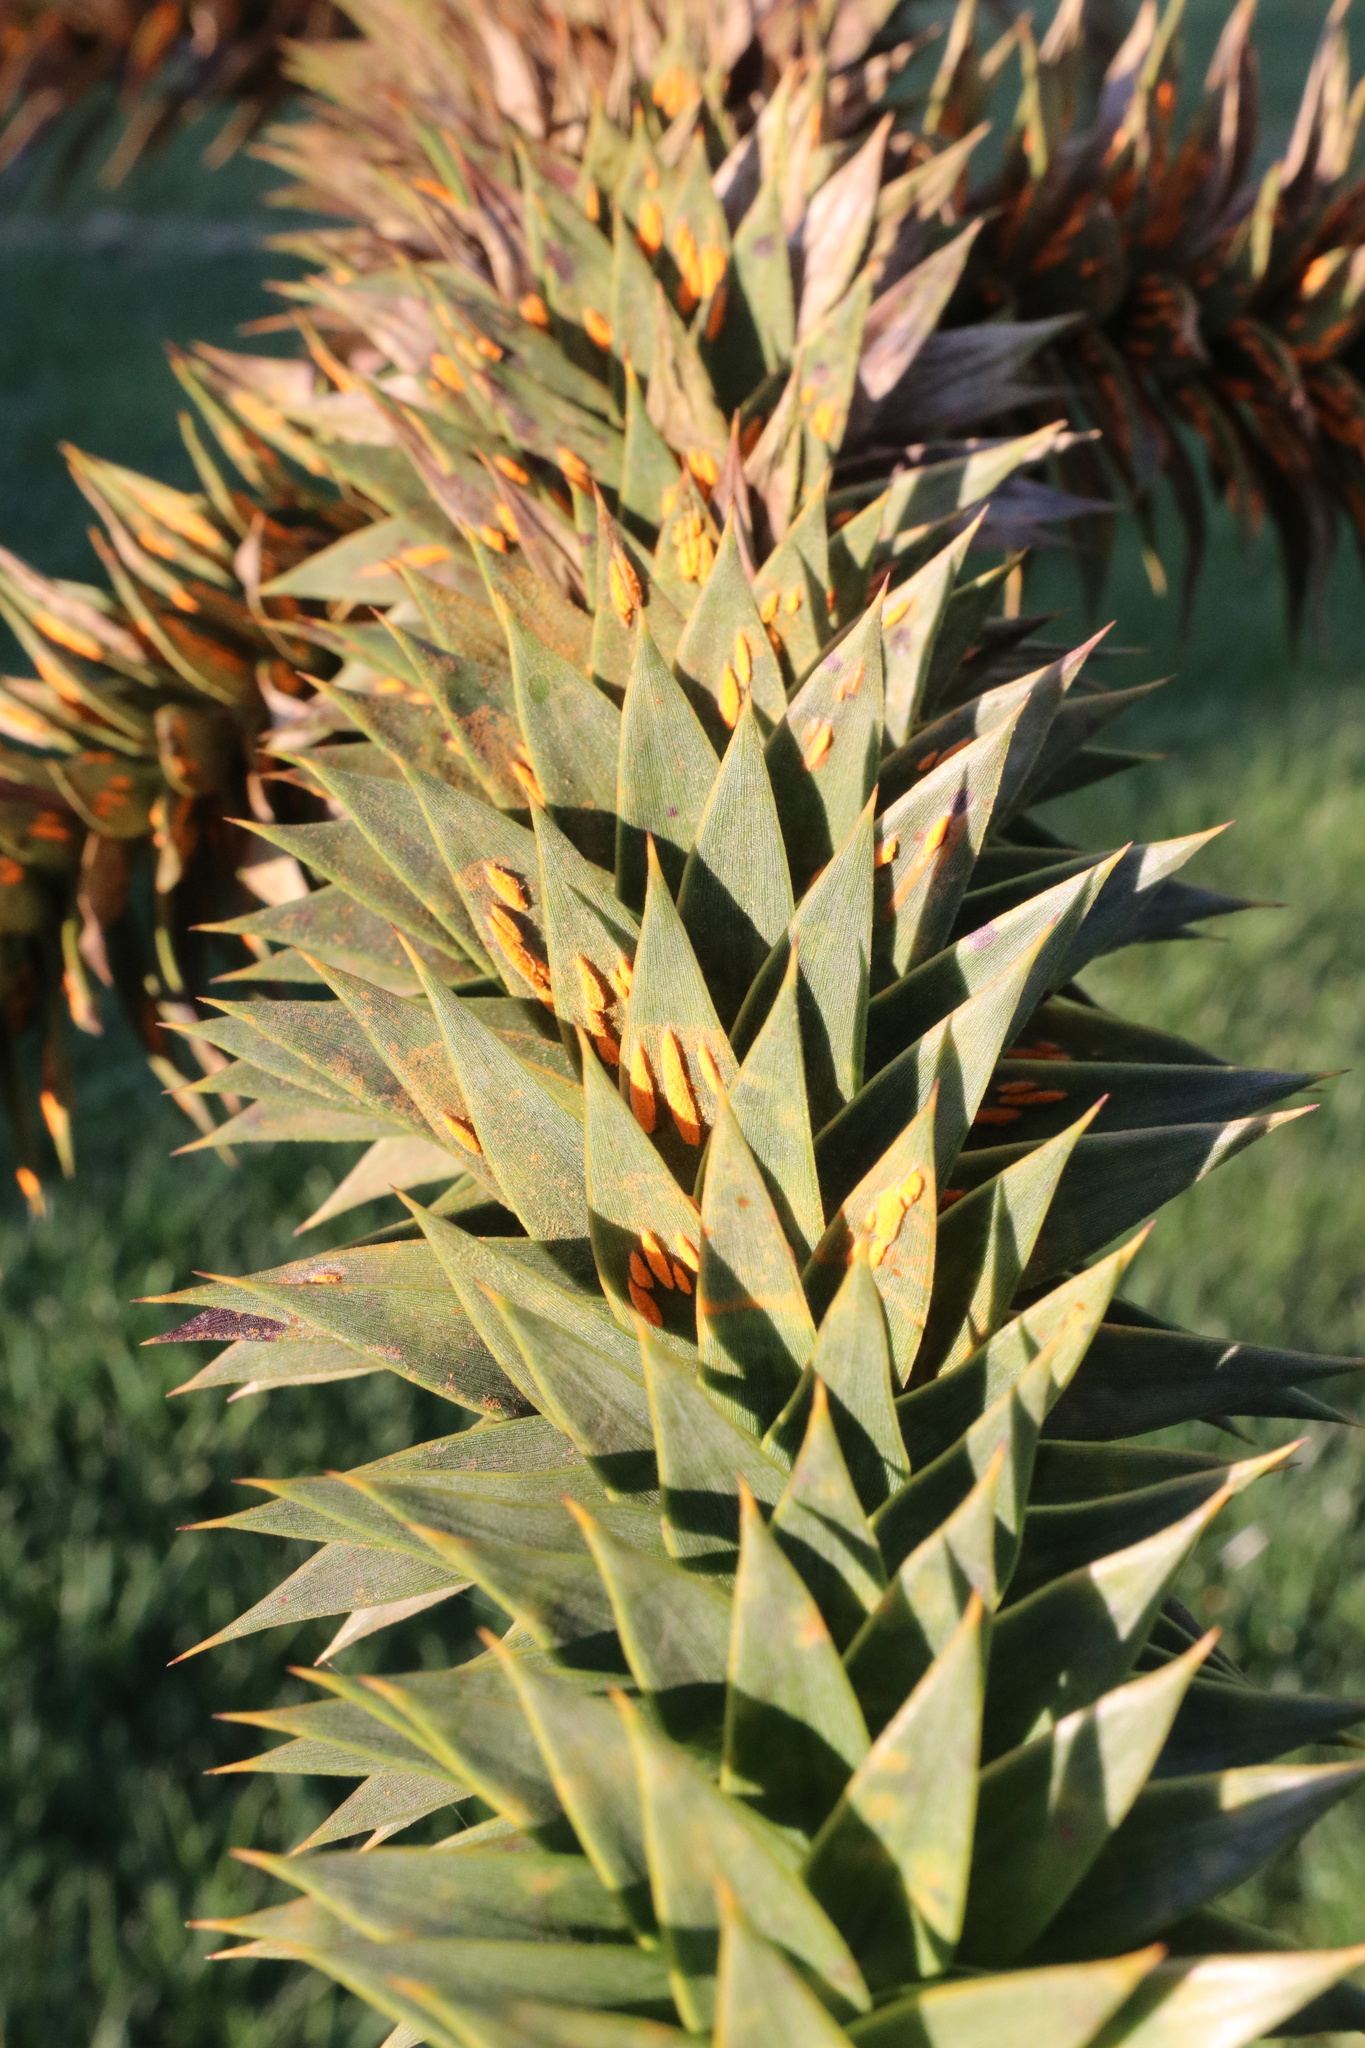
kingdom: Fungi
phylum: Basidiomycota
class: Pucciniomycetes
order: Pucciniales
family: Mikronegeriaceae
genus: Mikronegeria
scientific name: Mikronegeria fagi
